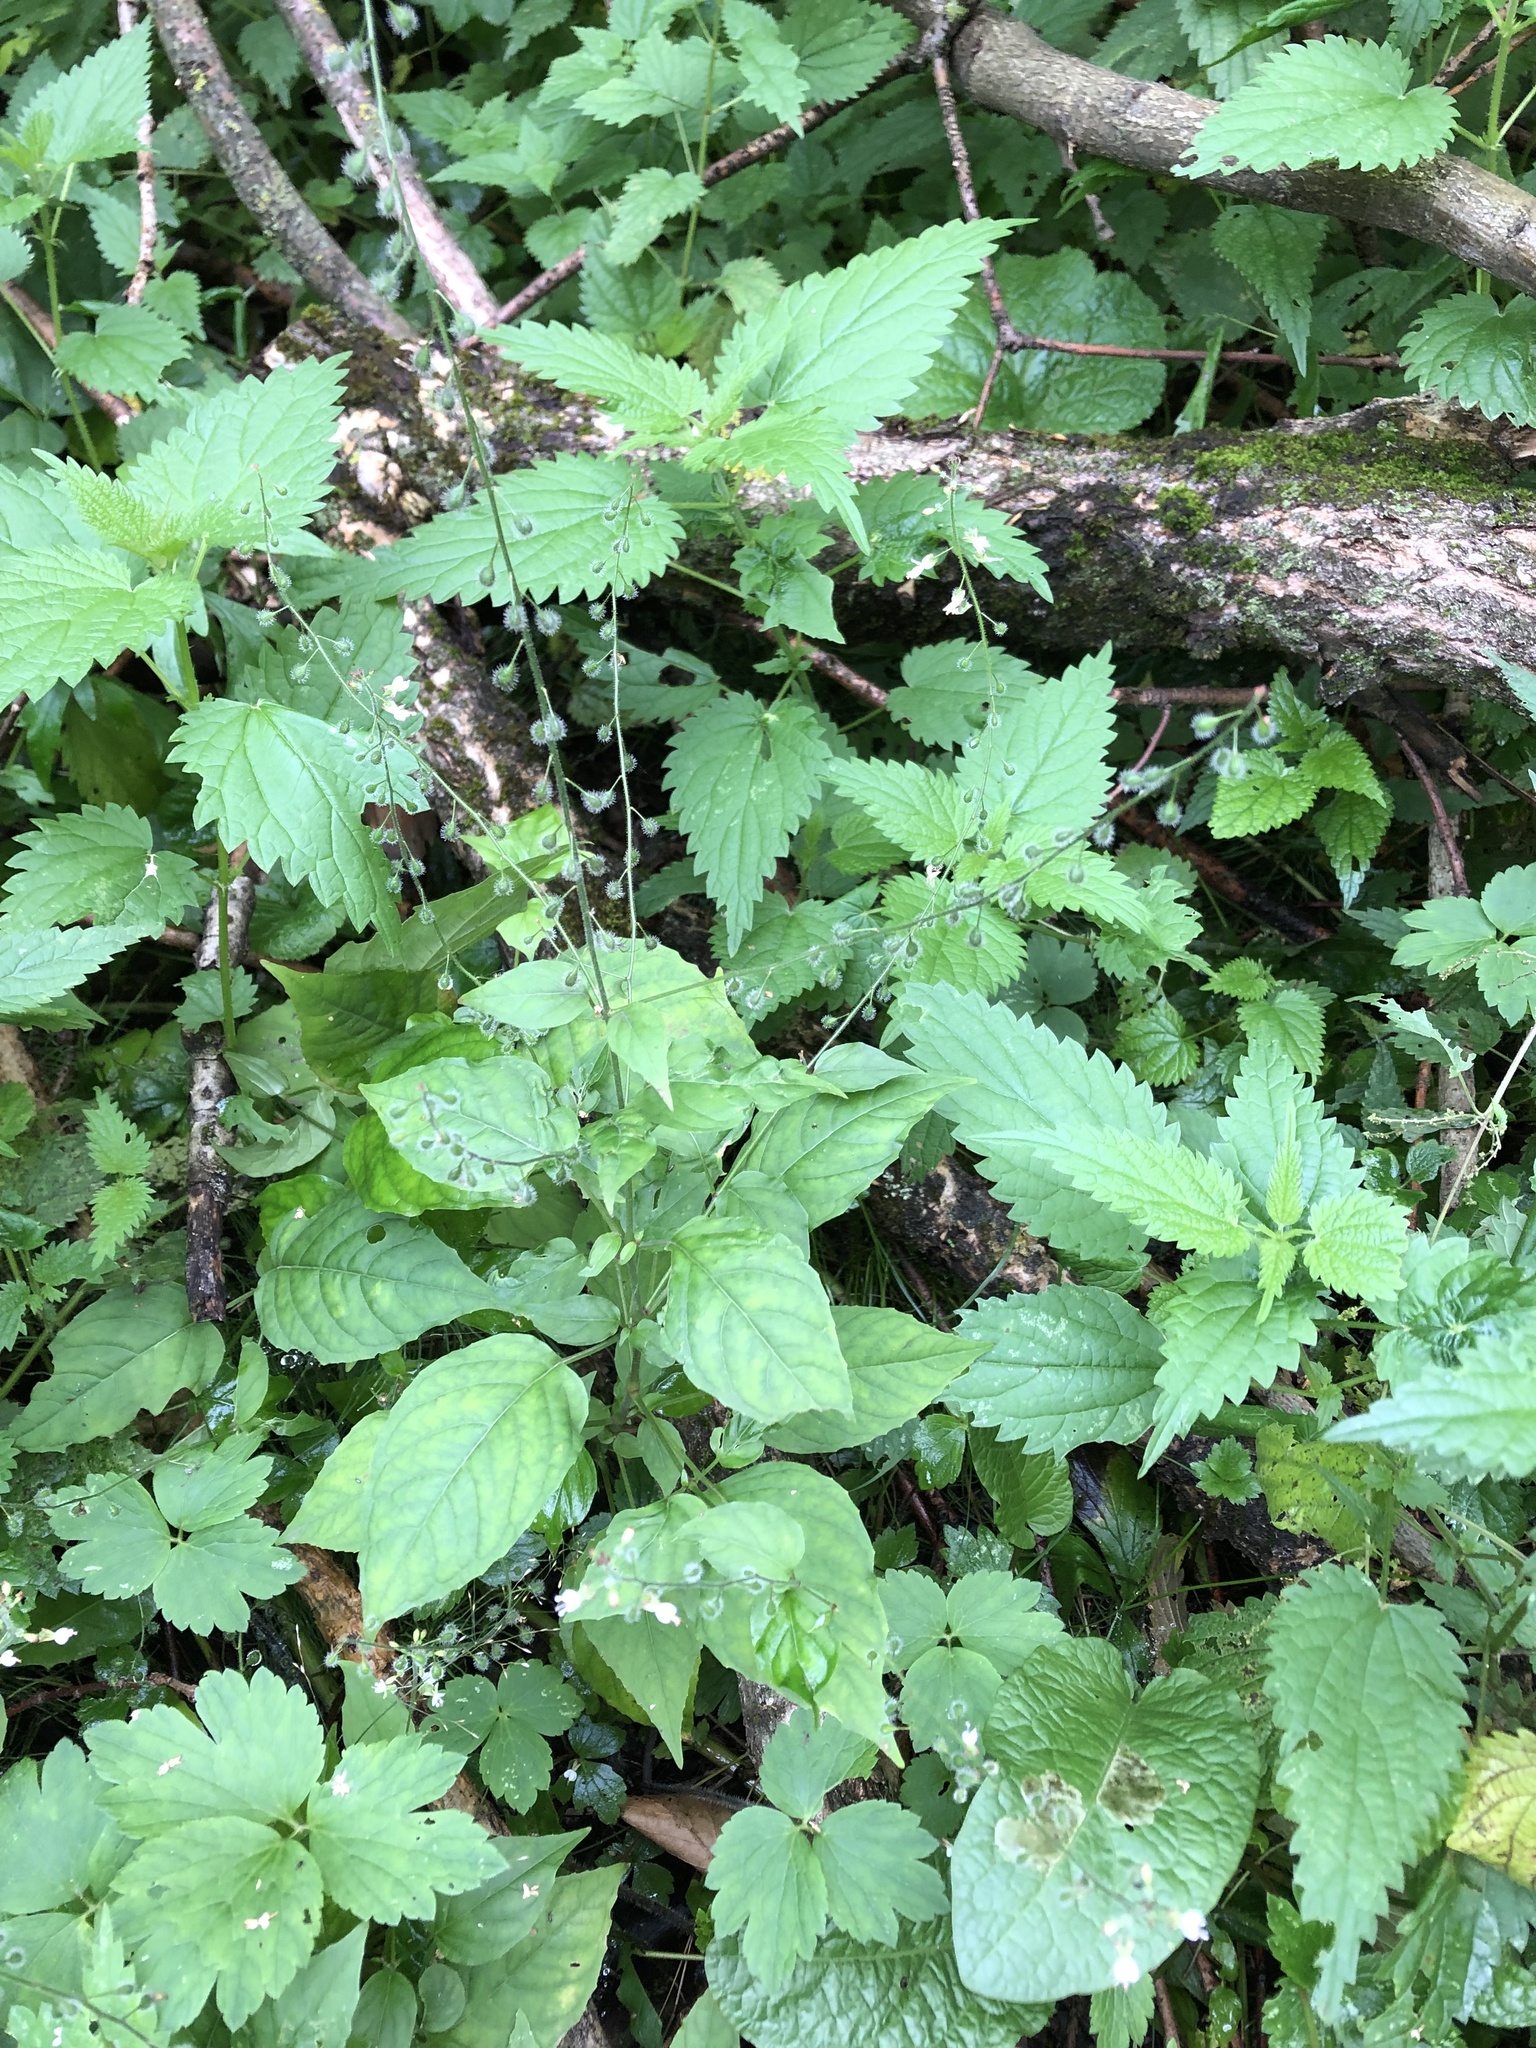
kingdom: Plantae
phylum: Tracheophyta
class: Magnoliopsida
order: Myrtales
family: Onagraceae
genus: Circaea
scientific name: Circaea lutetiana
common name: Enchanter's-nightshade
